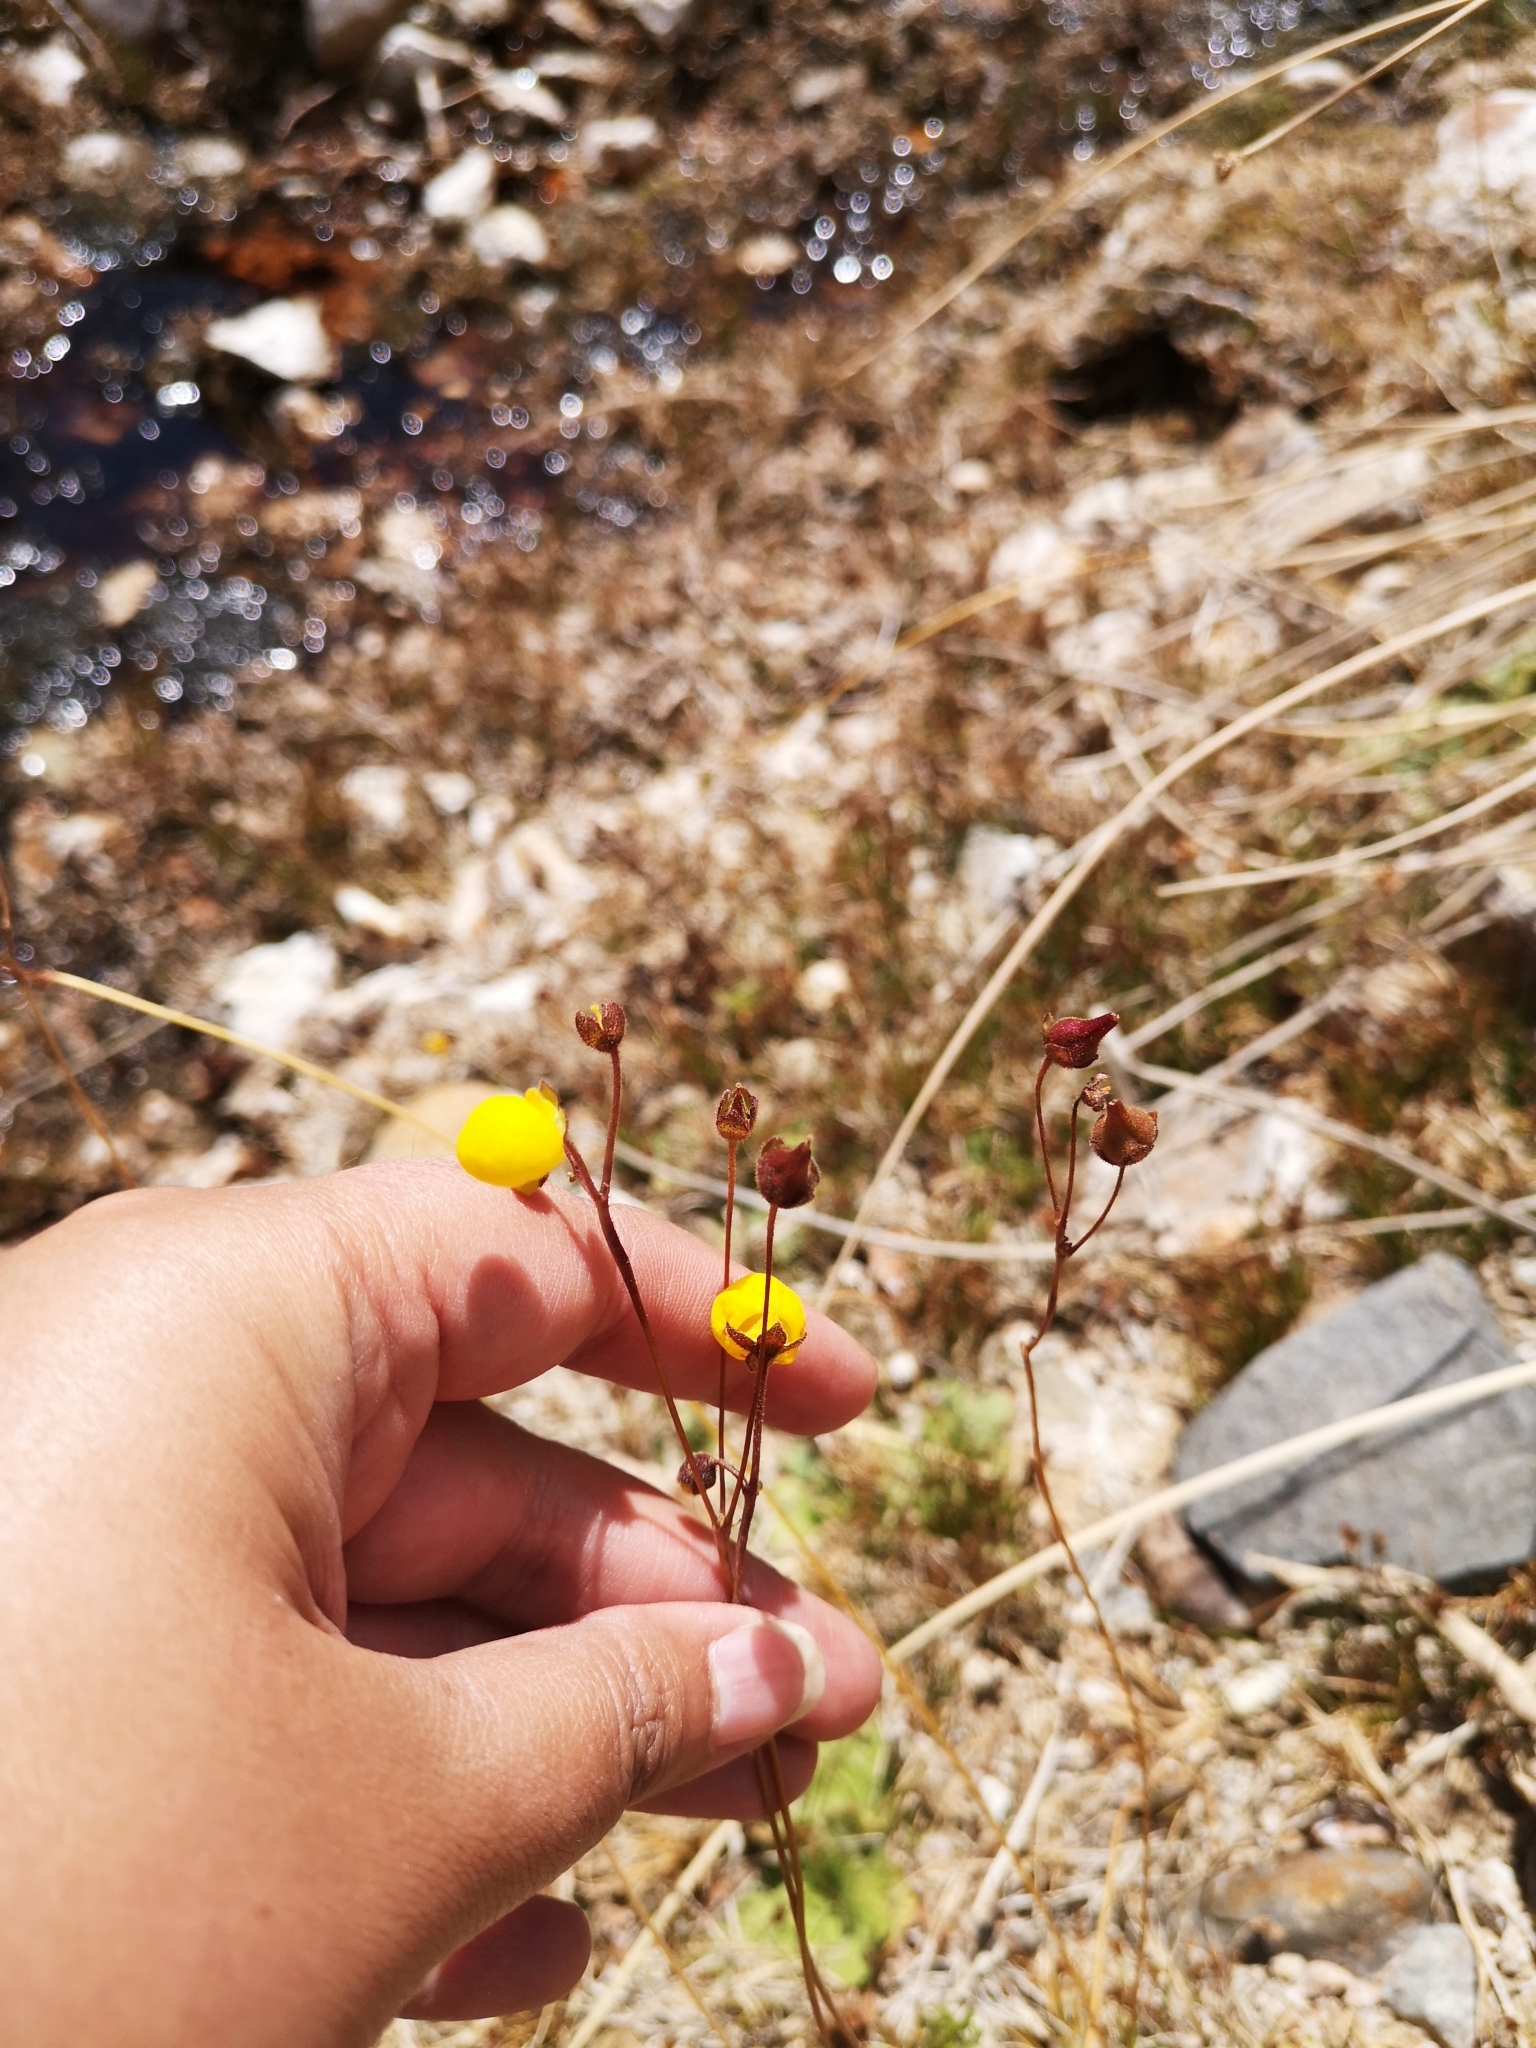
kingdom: Plantae
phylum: Tracheophyta
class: Magnoliopsida
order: Lamiales
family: Calceolariaceae
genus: Calceolaria
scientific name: Calceolaria filicaulis
